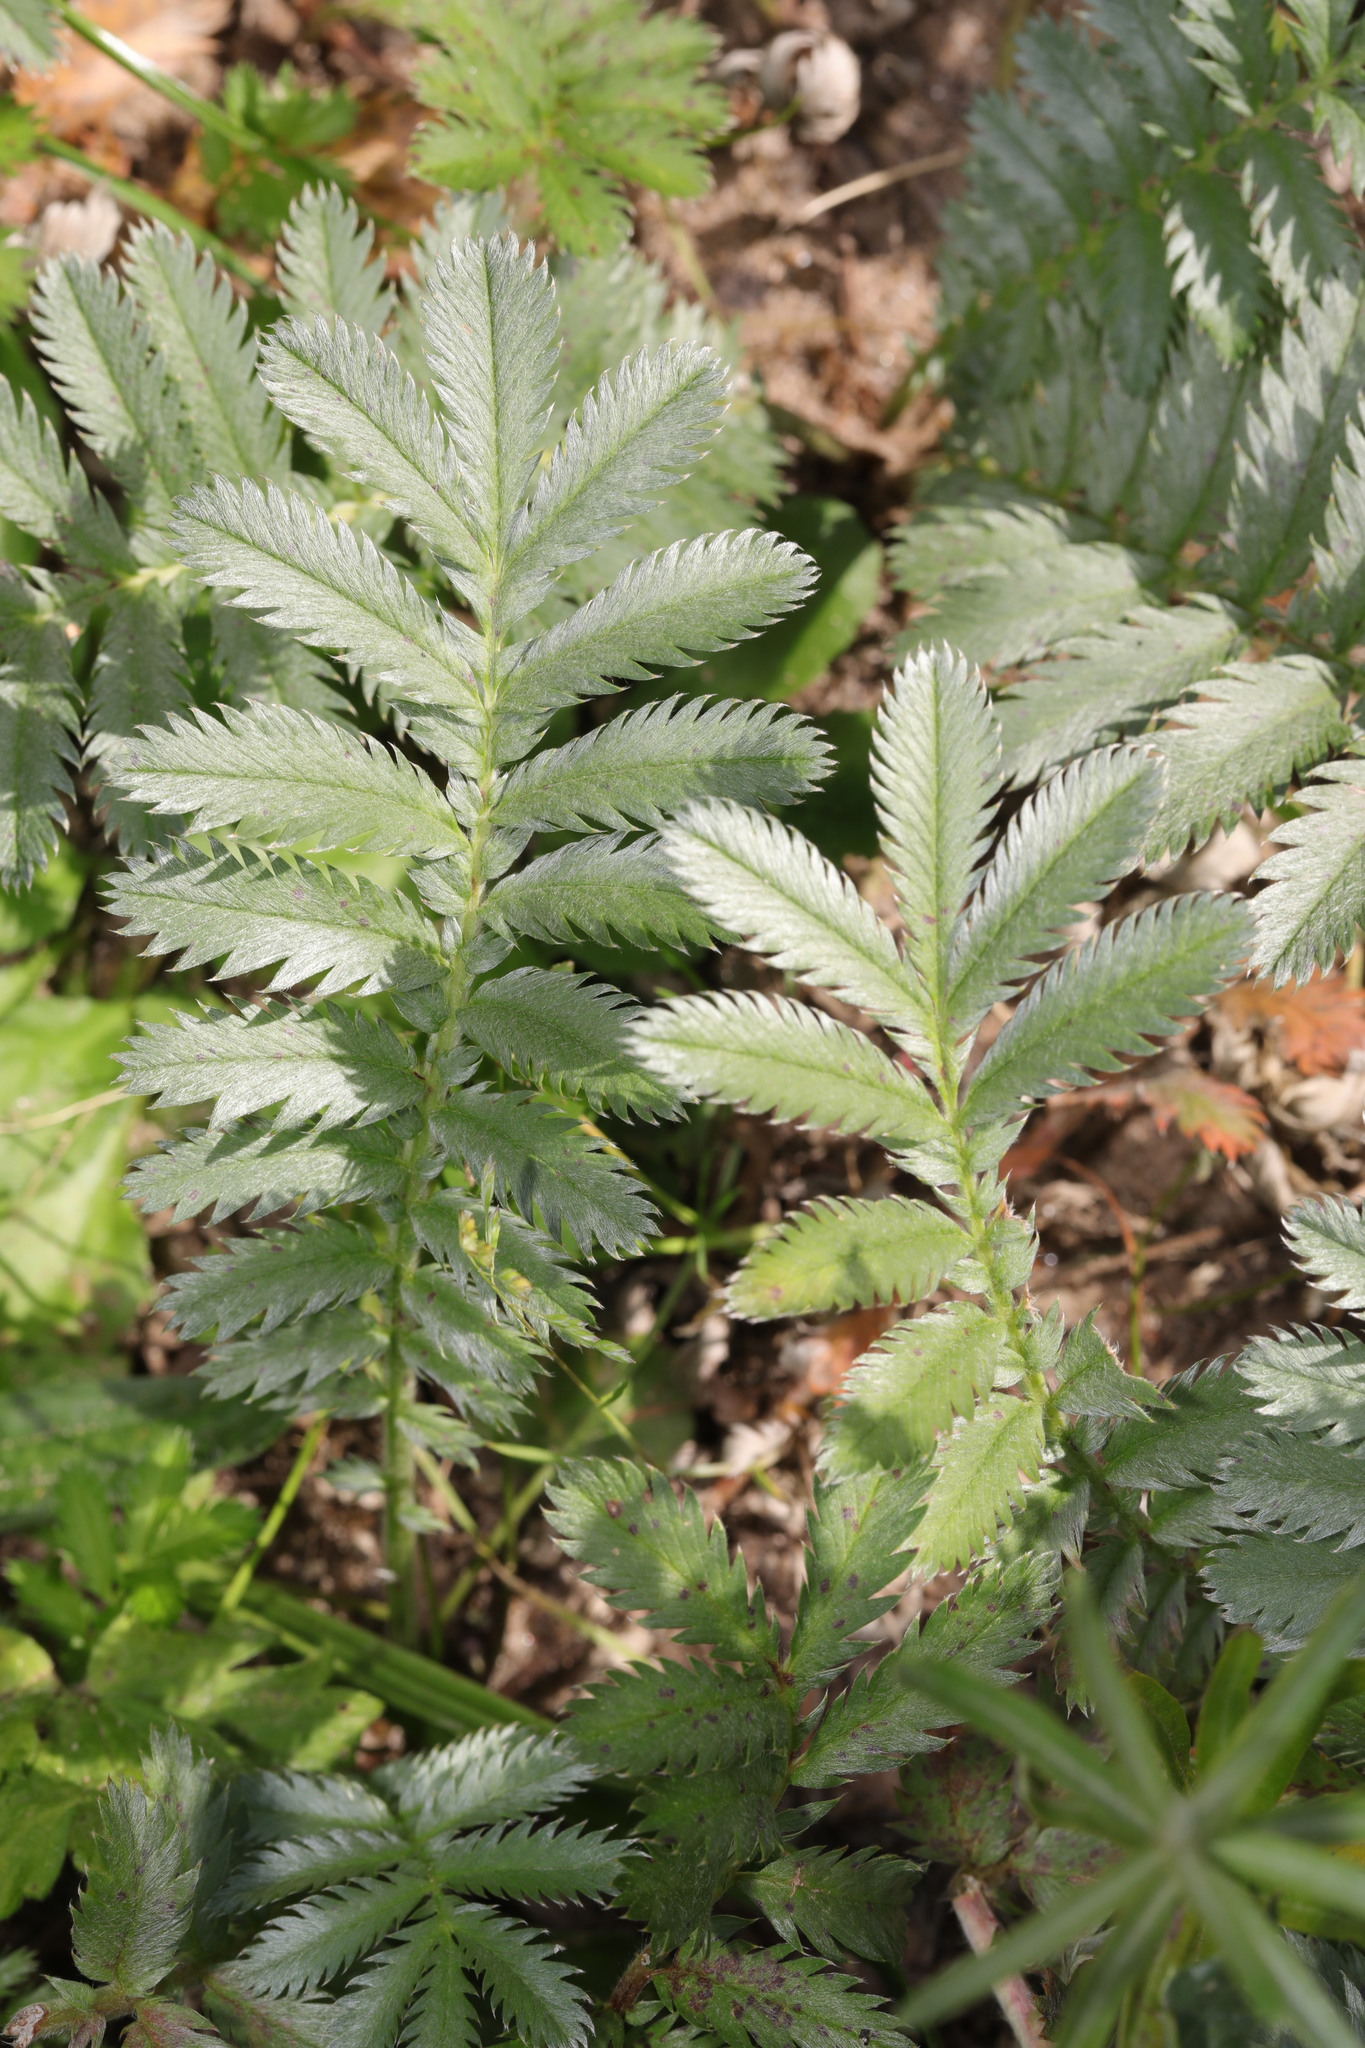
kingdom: Plantae
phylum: Tracheophyta
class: Magnoliopsida
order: Rosales
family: Rosaceae
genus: Argentina
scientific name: Argentina anserina
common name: Common silverweed
